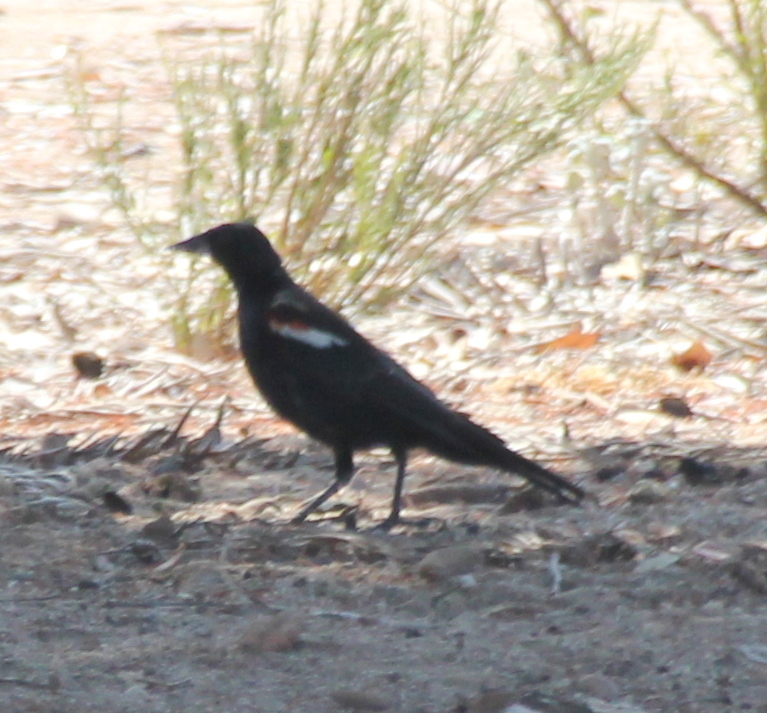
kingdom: Animalia
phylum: Chordata
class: Aves
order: Passeriformes
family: Icteridae
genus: Agelaius
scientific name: Agelaius tricolor
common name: Tricolored blackbird
